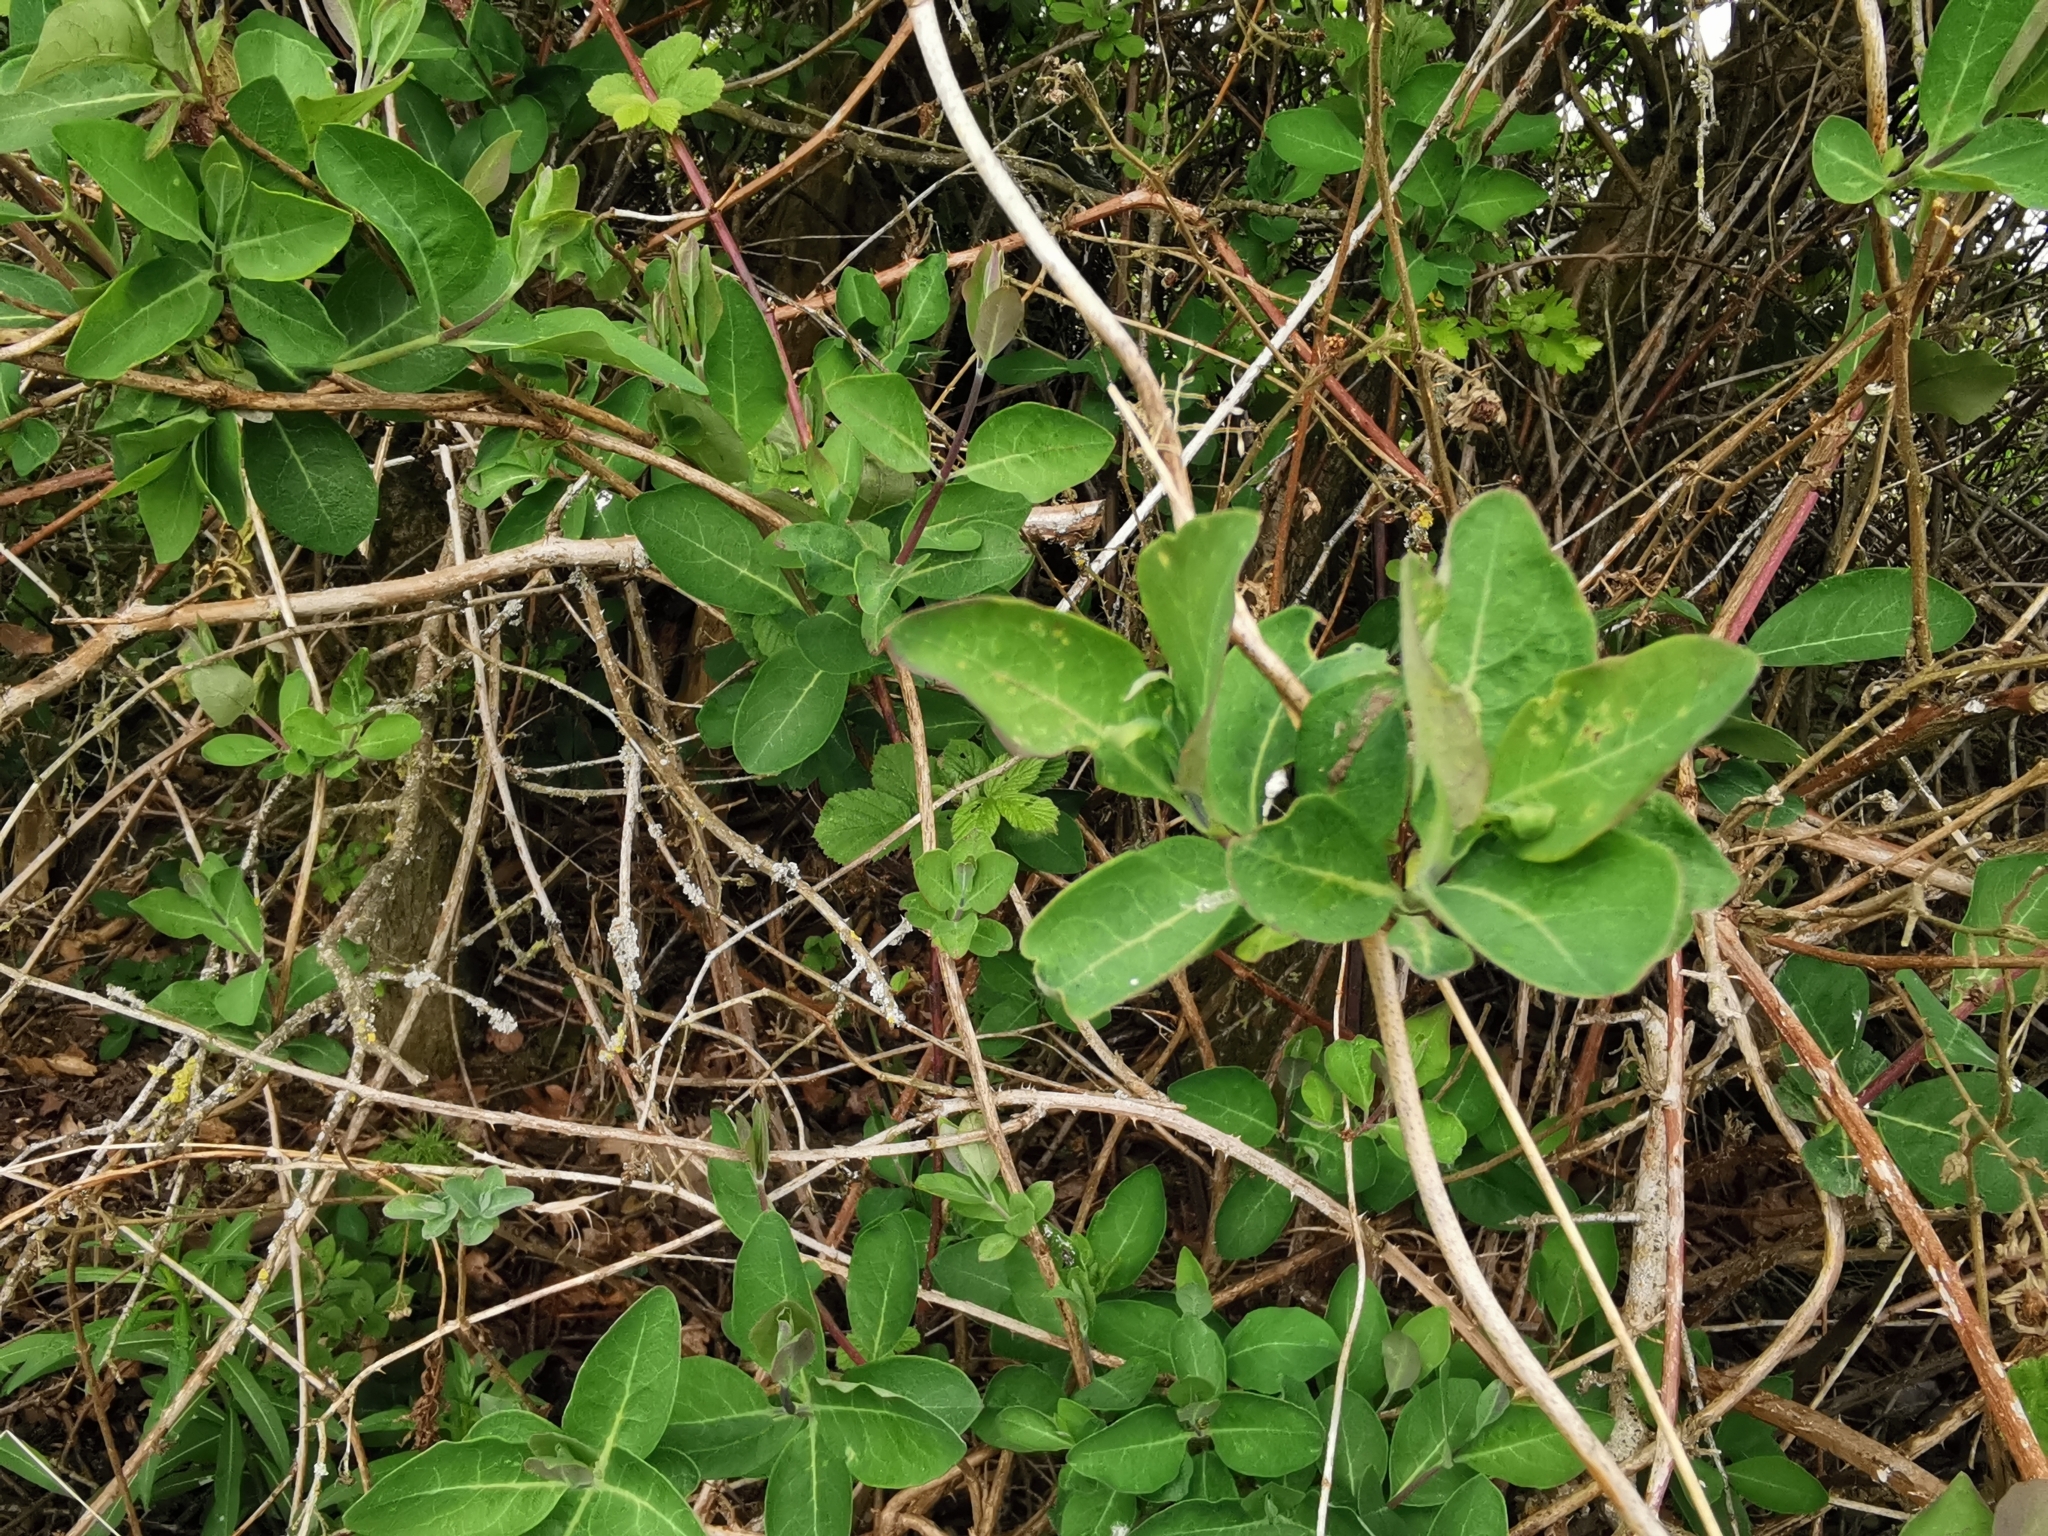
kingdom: Plantae
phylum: Tracheophyta
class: Magnoliopsida
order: Dipsacales
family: Caprifoliaceae
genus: Lonicera
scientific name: Lonicera periclymenum
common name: European honeysuckle
